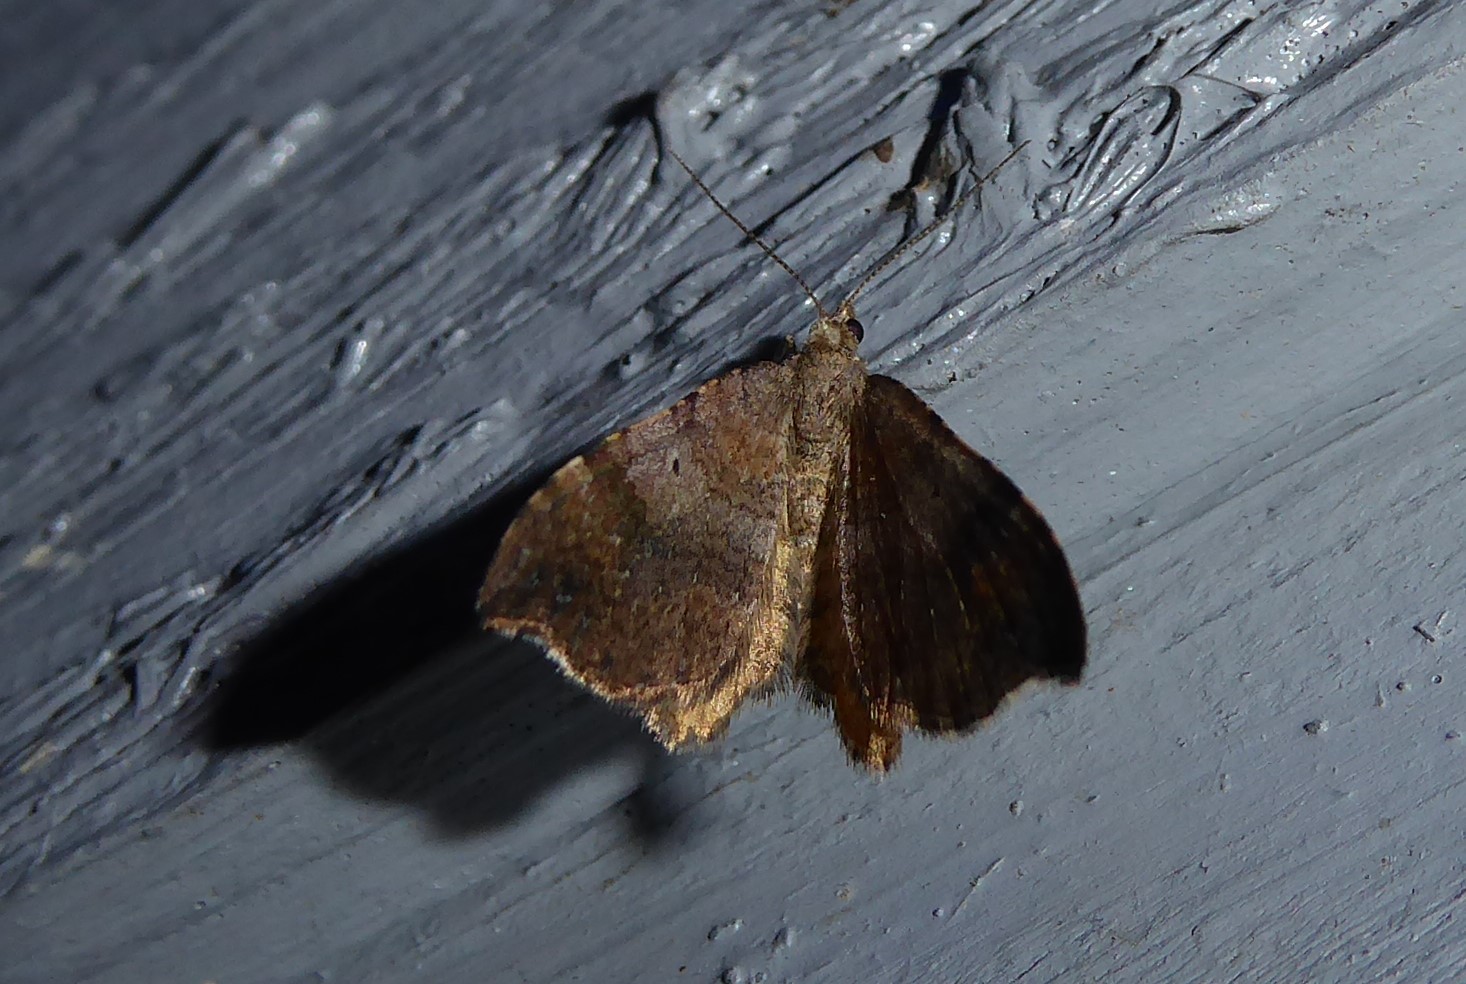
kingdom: Animalia
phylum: Arthropoda
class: Insecta
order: Lepidoptera
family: Geometridae
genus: Homodotis
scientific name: Homodotis megaspilata
